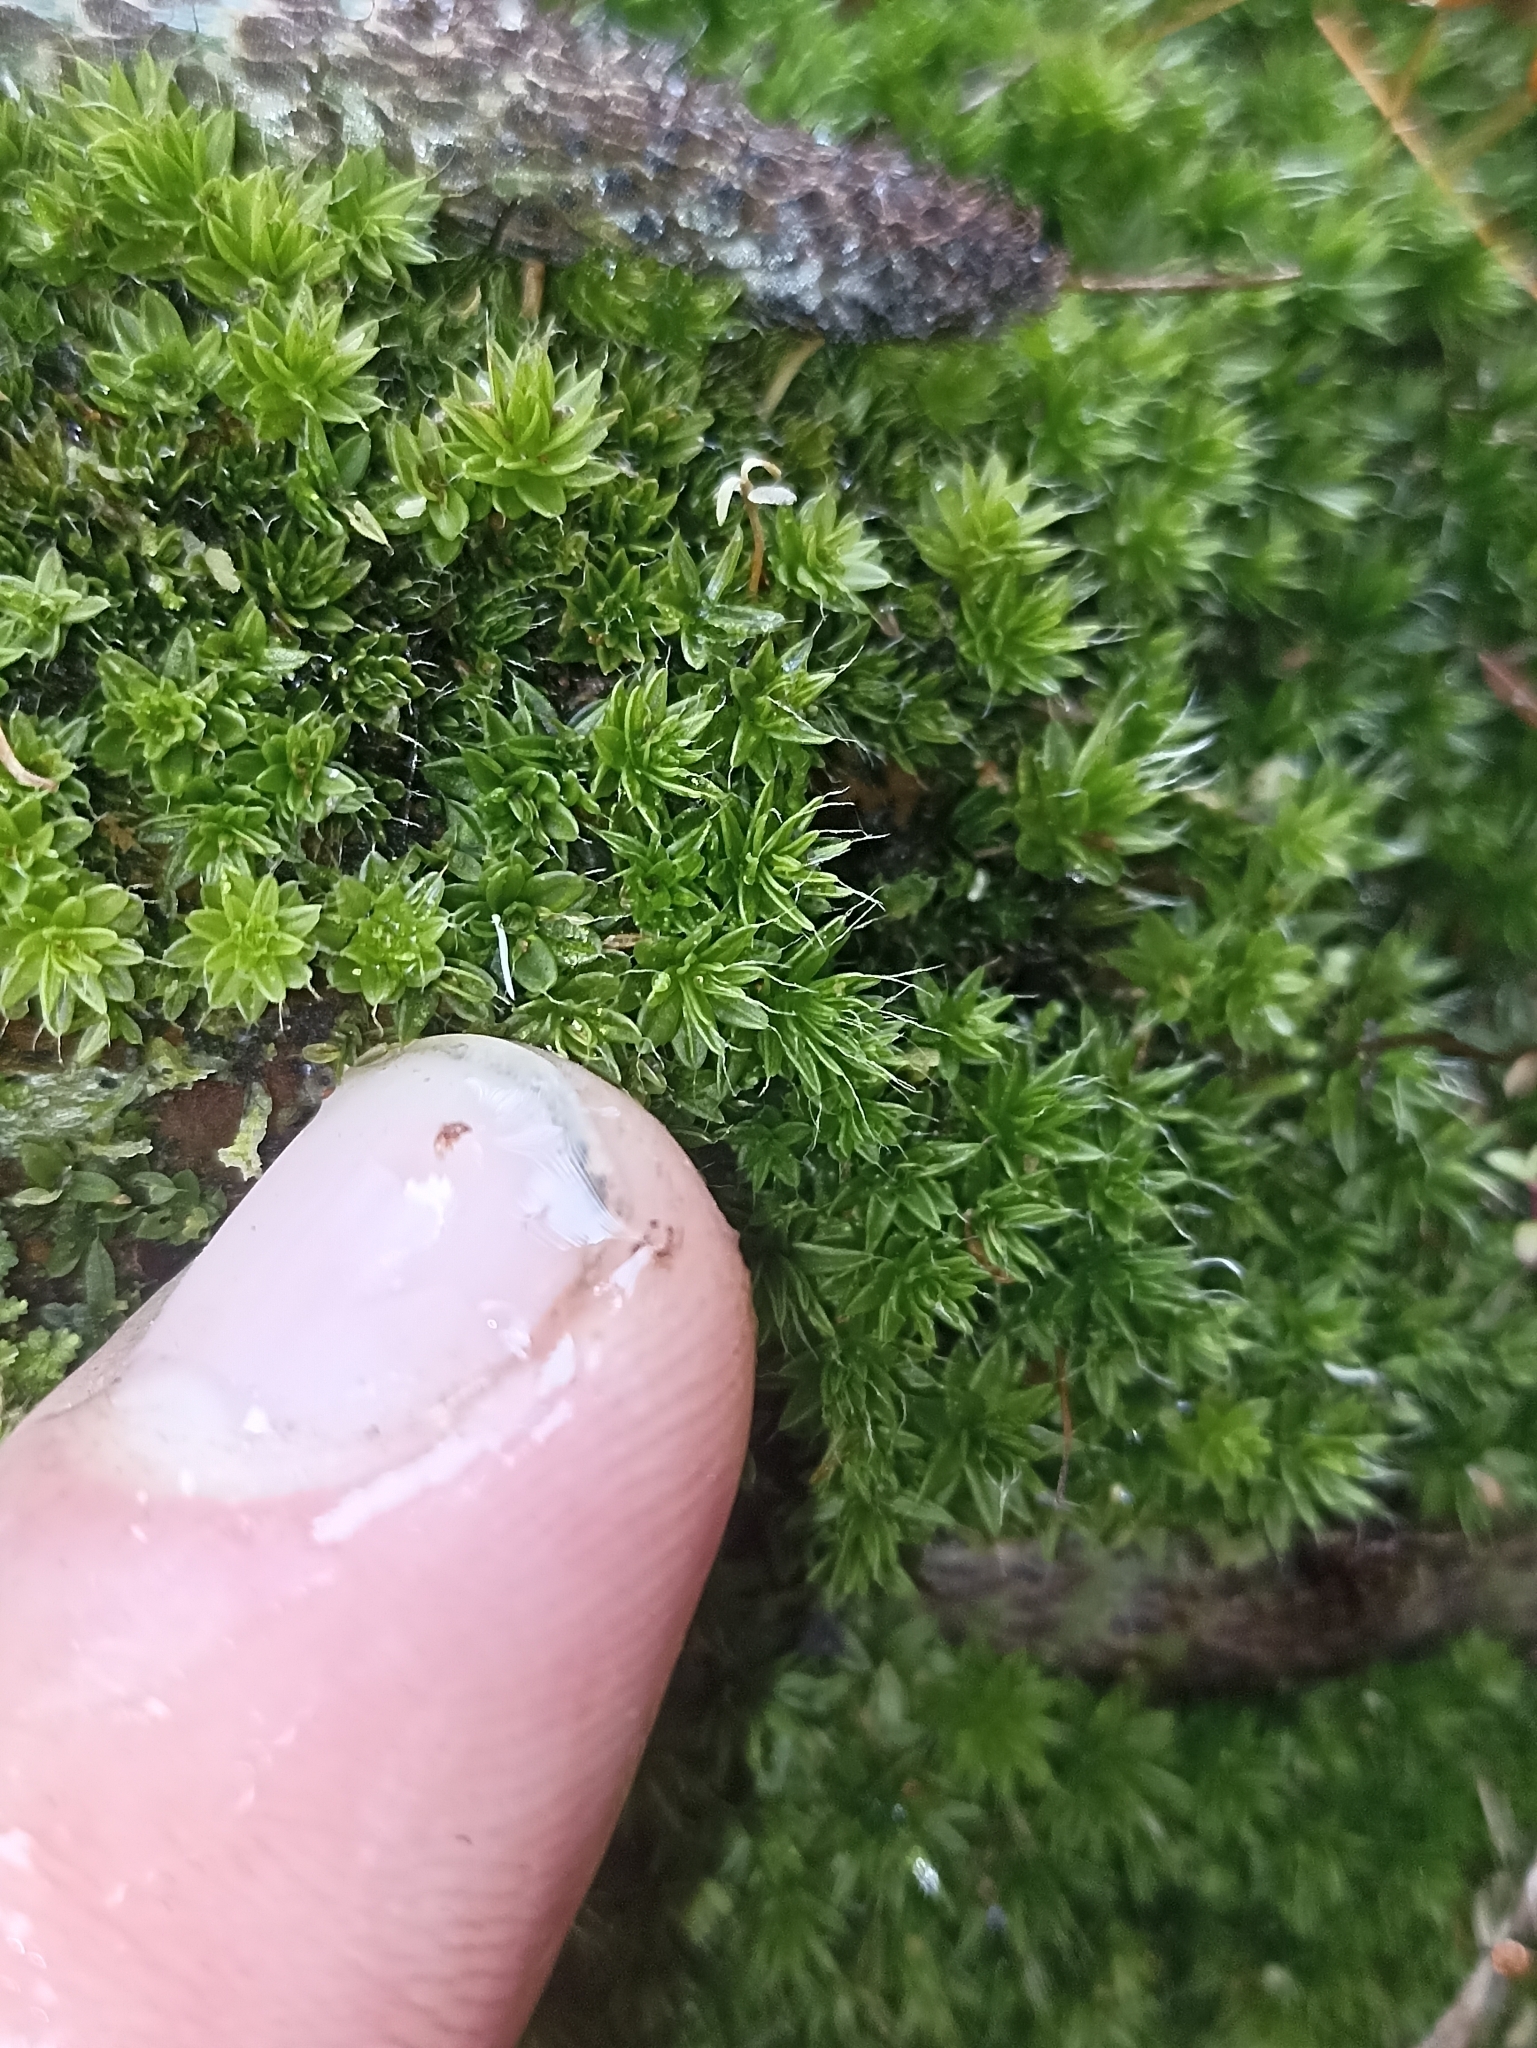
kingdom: Plantae
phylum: Bryophyta
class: Bryopsida
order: Bryales
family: Leptostomataceae
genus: Leptostomum
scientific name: Leptostomum macrocarpon
